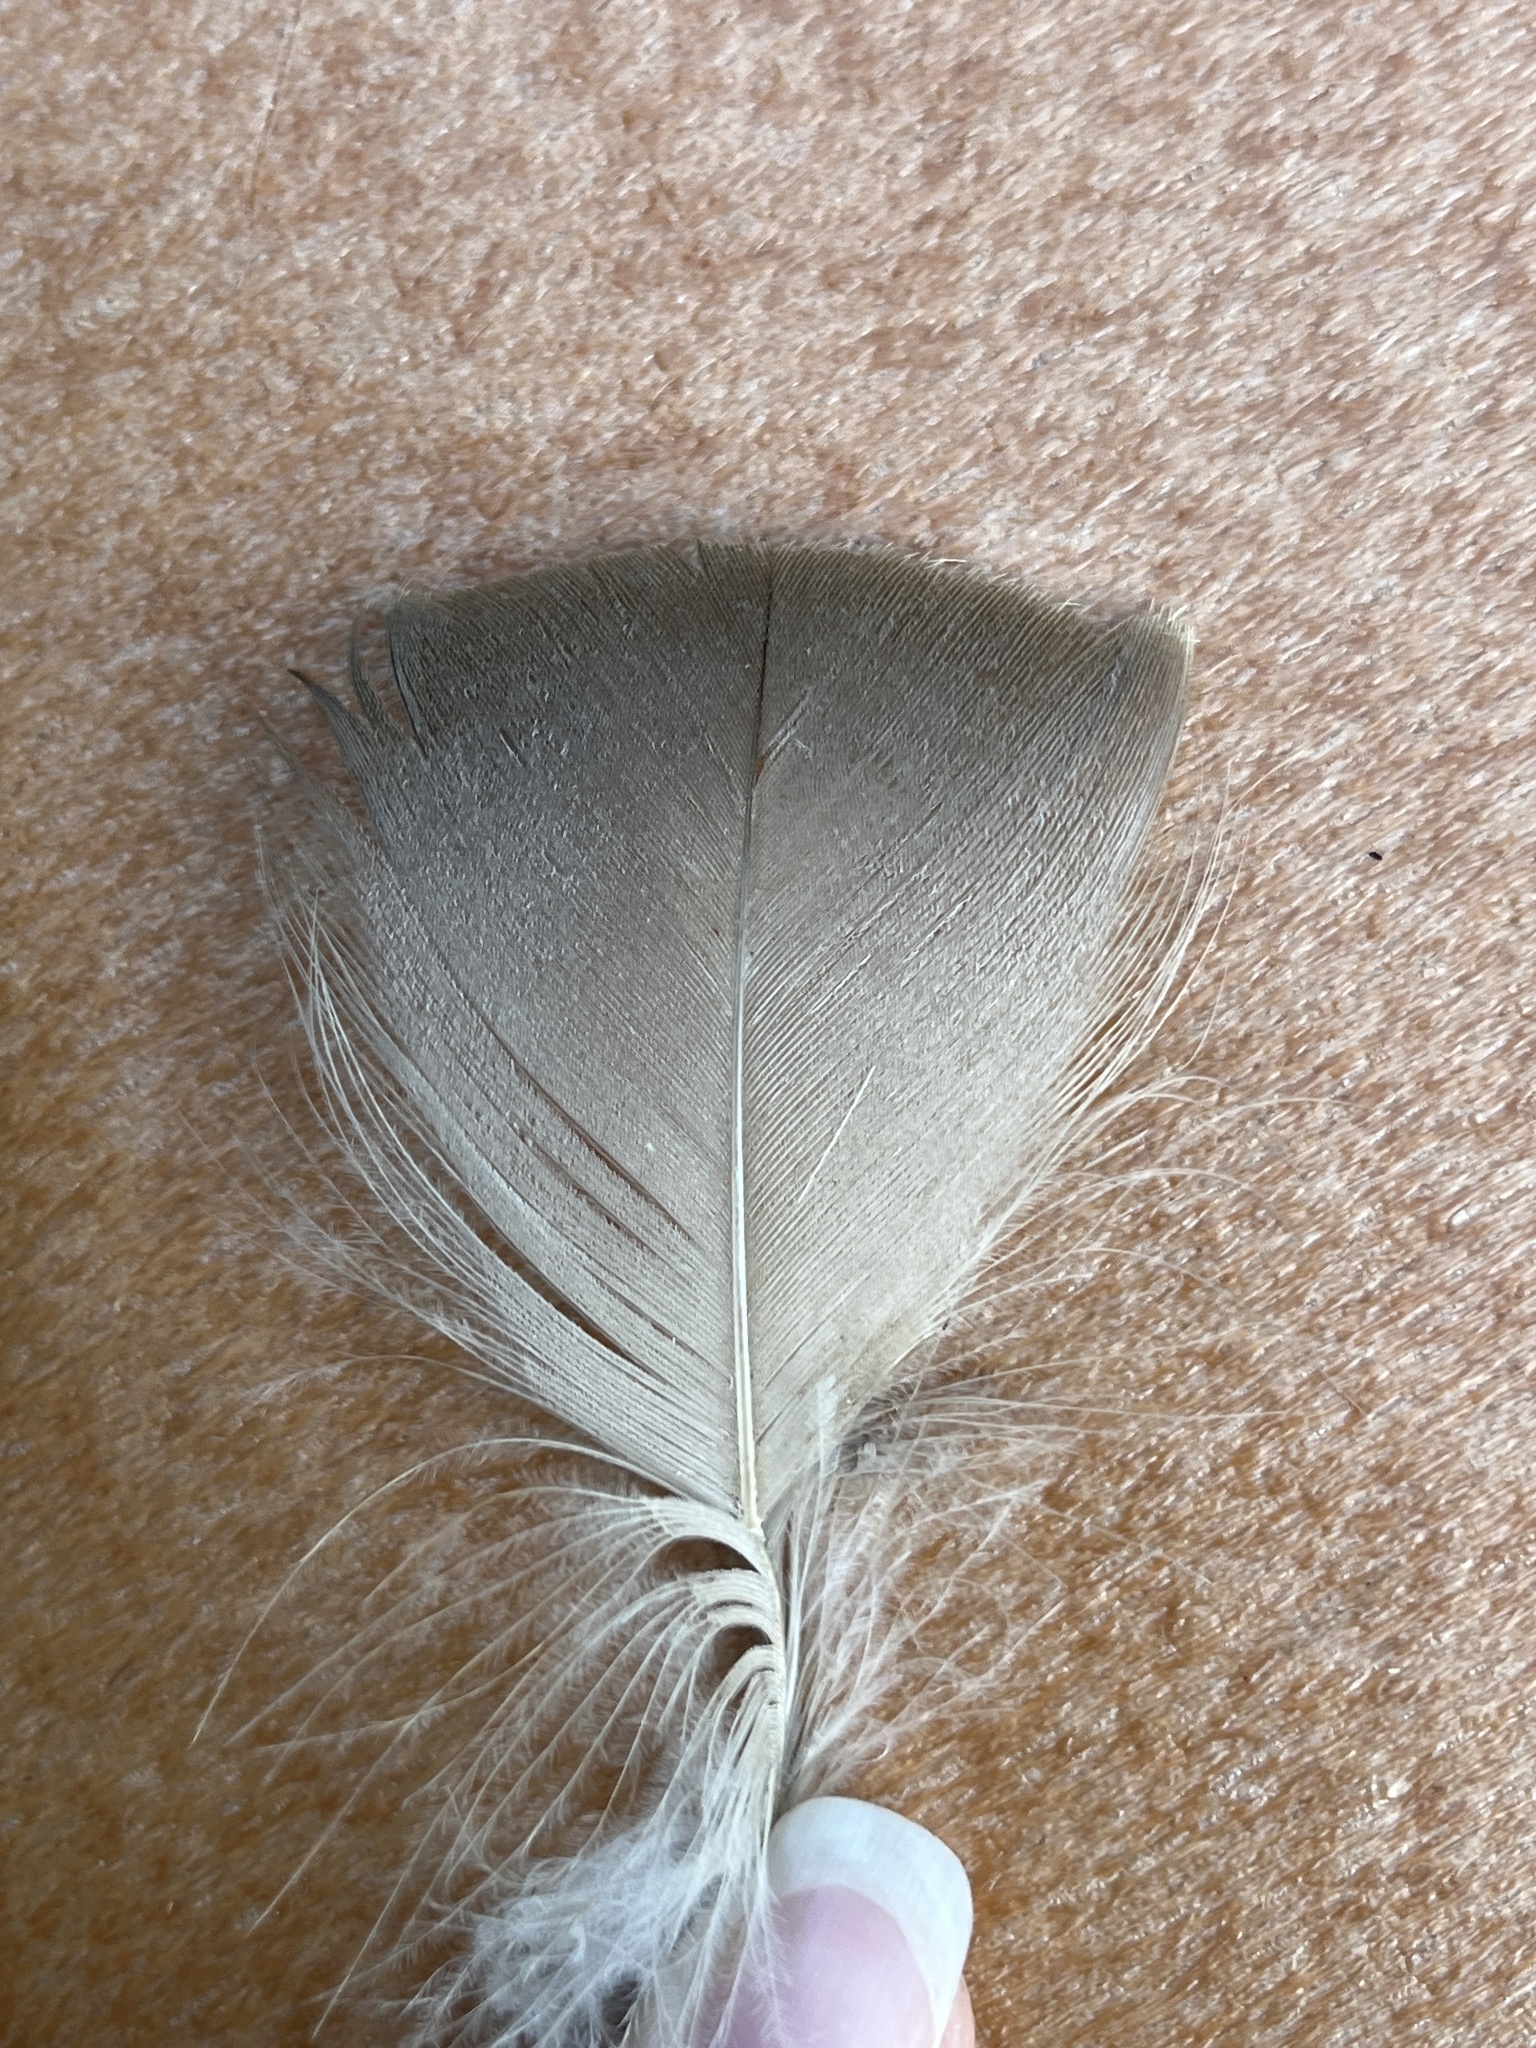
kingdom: Animalia
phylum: Chordata
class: Aves
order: Anseriformes
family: Anatidae
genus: Branta
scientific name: Branta canadensis
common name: Canada goose
